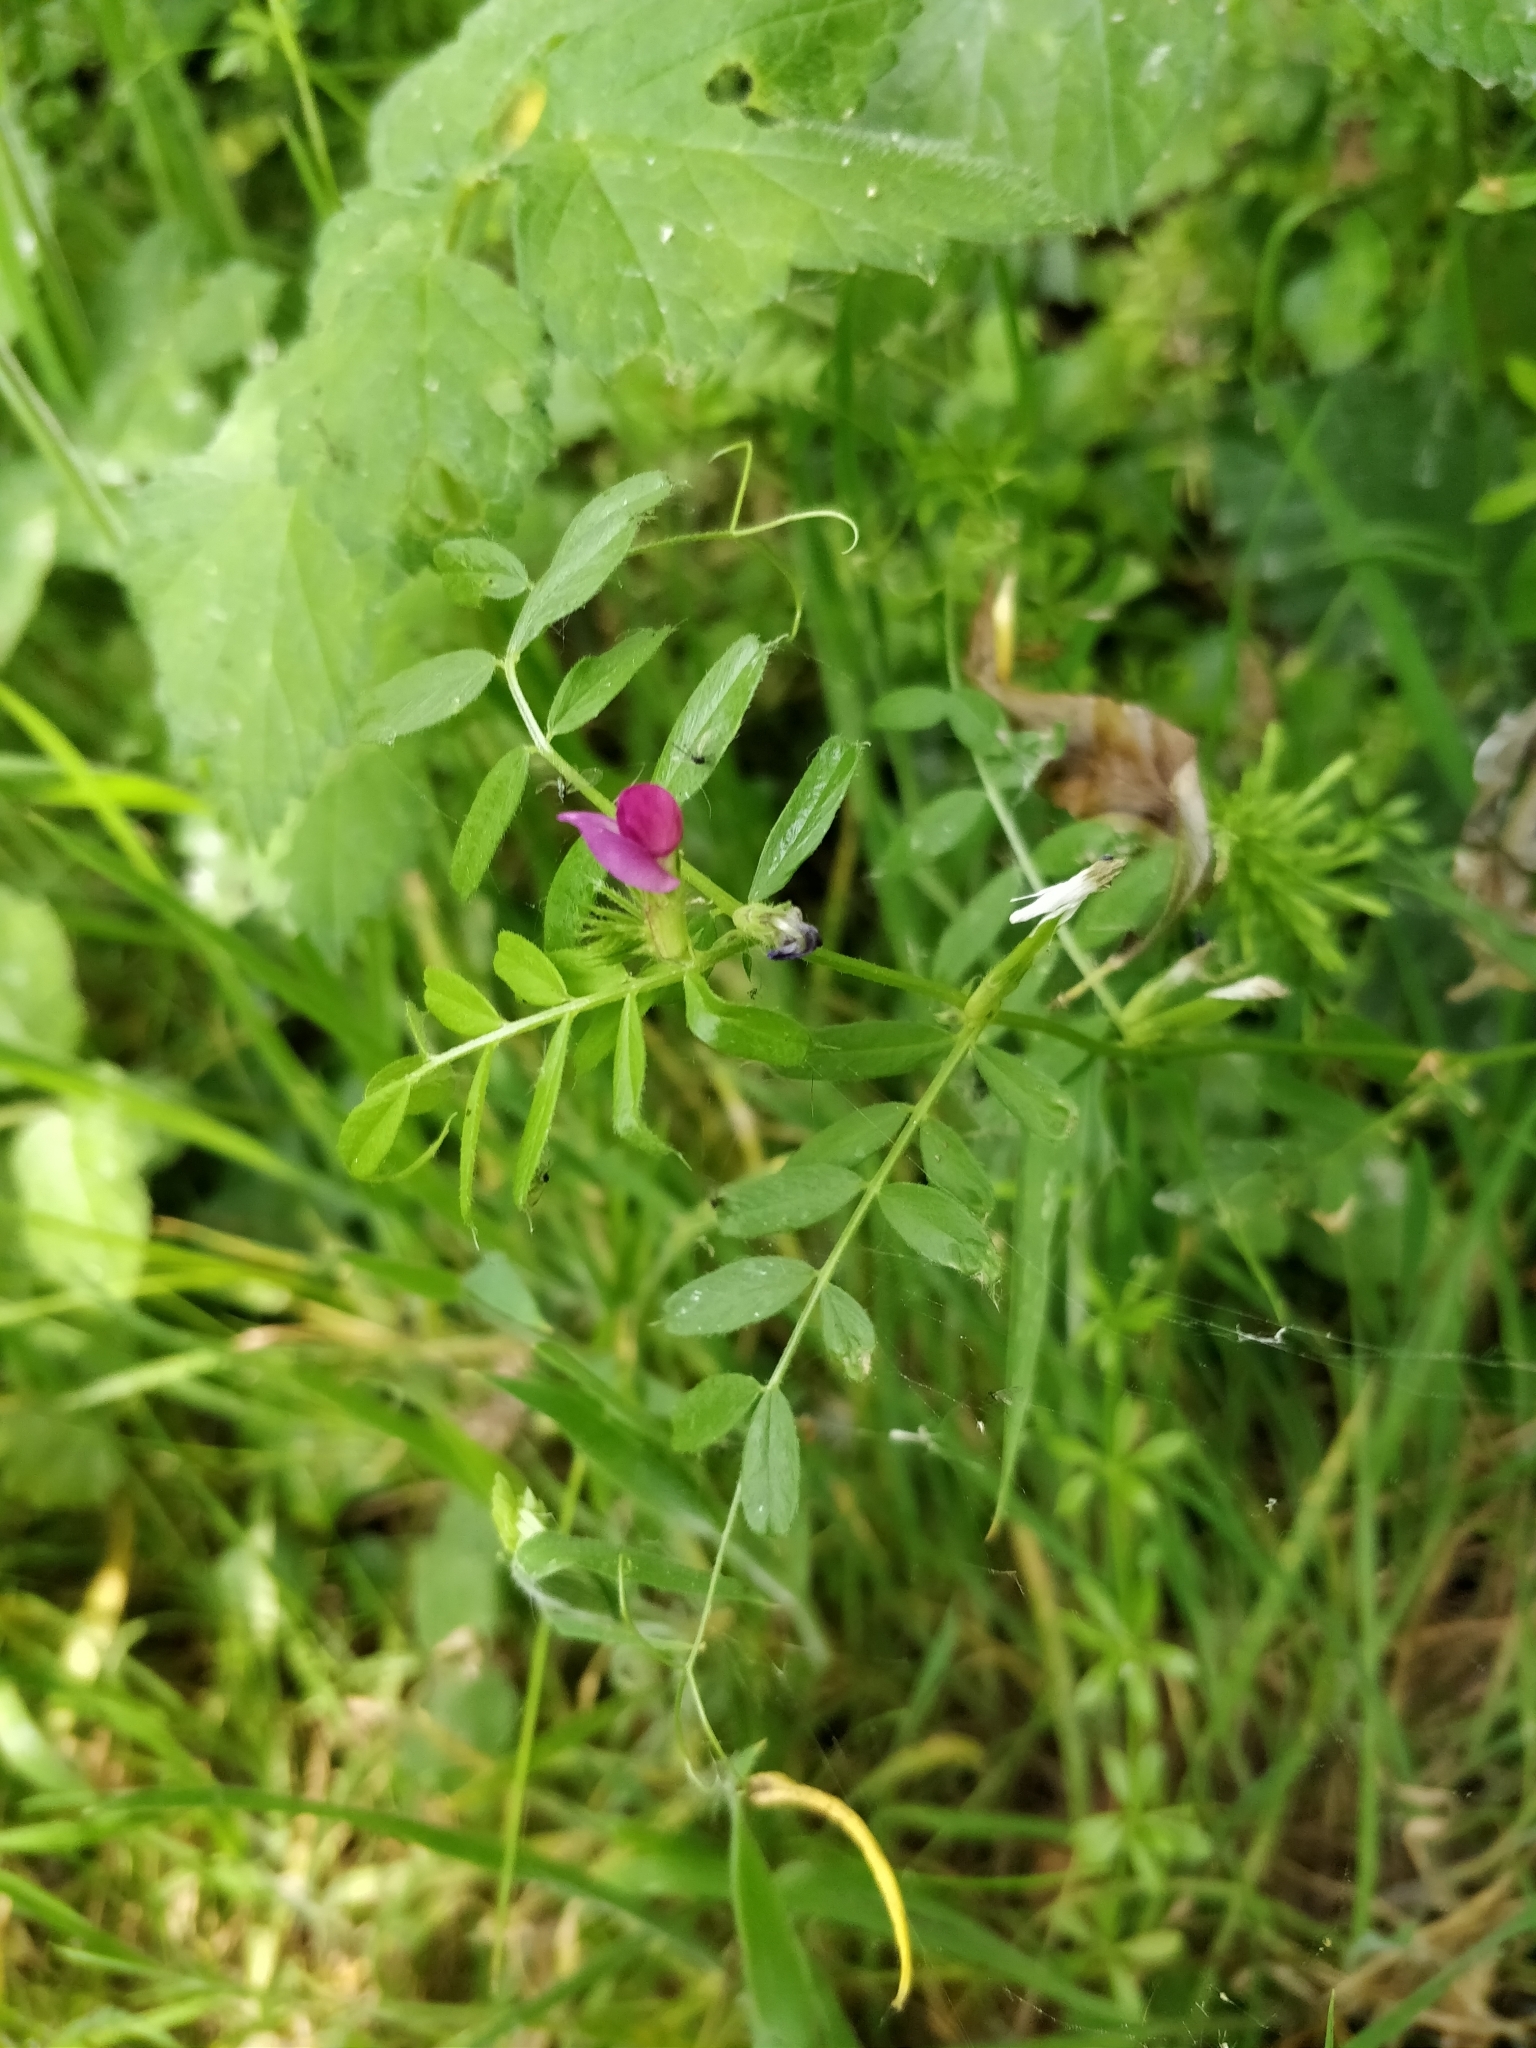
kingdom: Plantae
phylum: Tracheophyta
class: Magnoliopsida
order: Fabales
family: Fabaceae
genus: Vicia
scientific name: Vicia sativa
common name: Garden vetch
